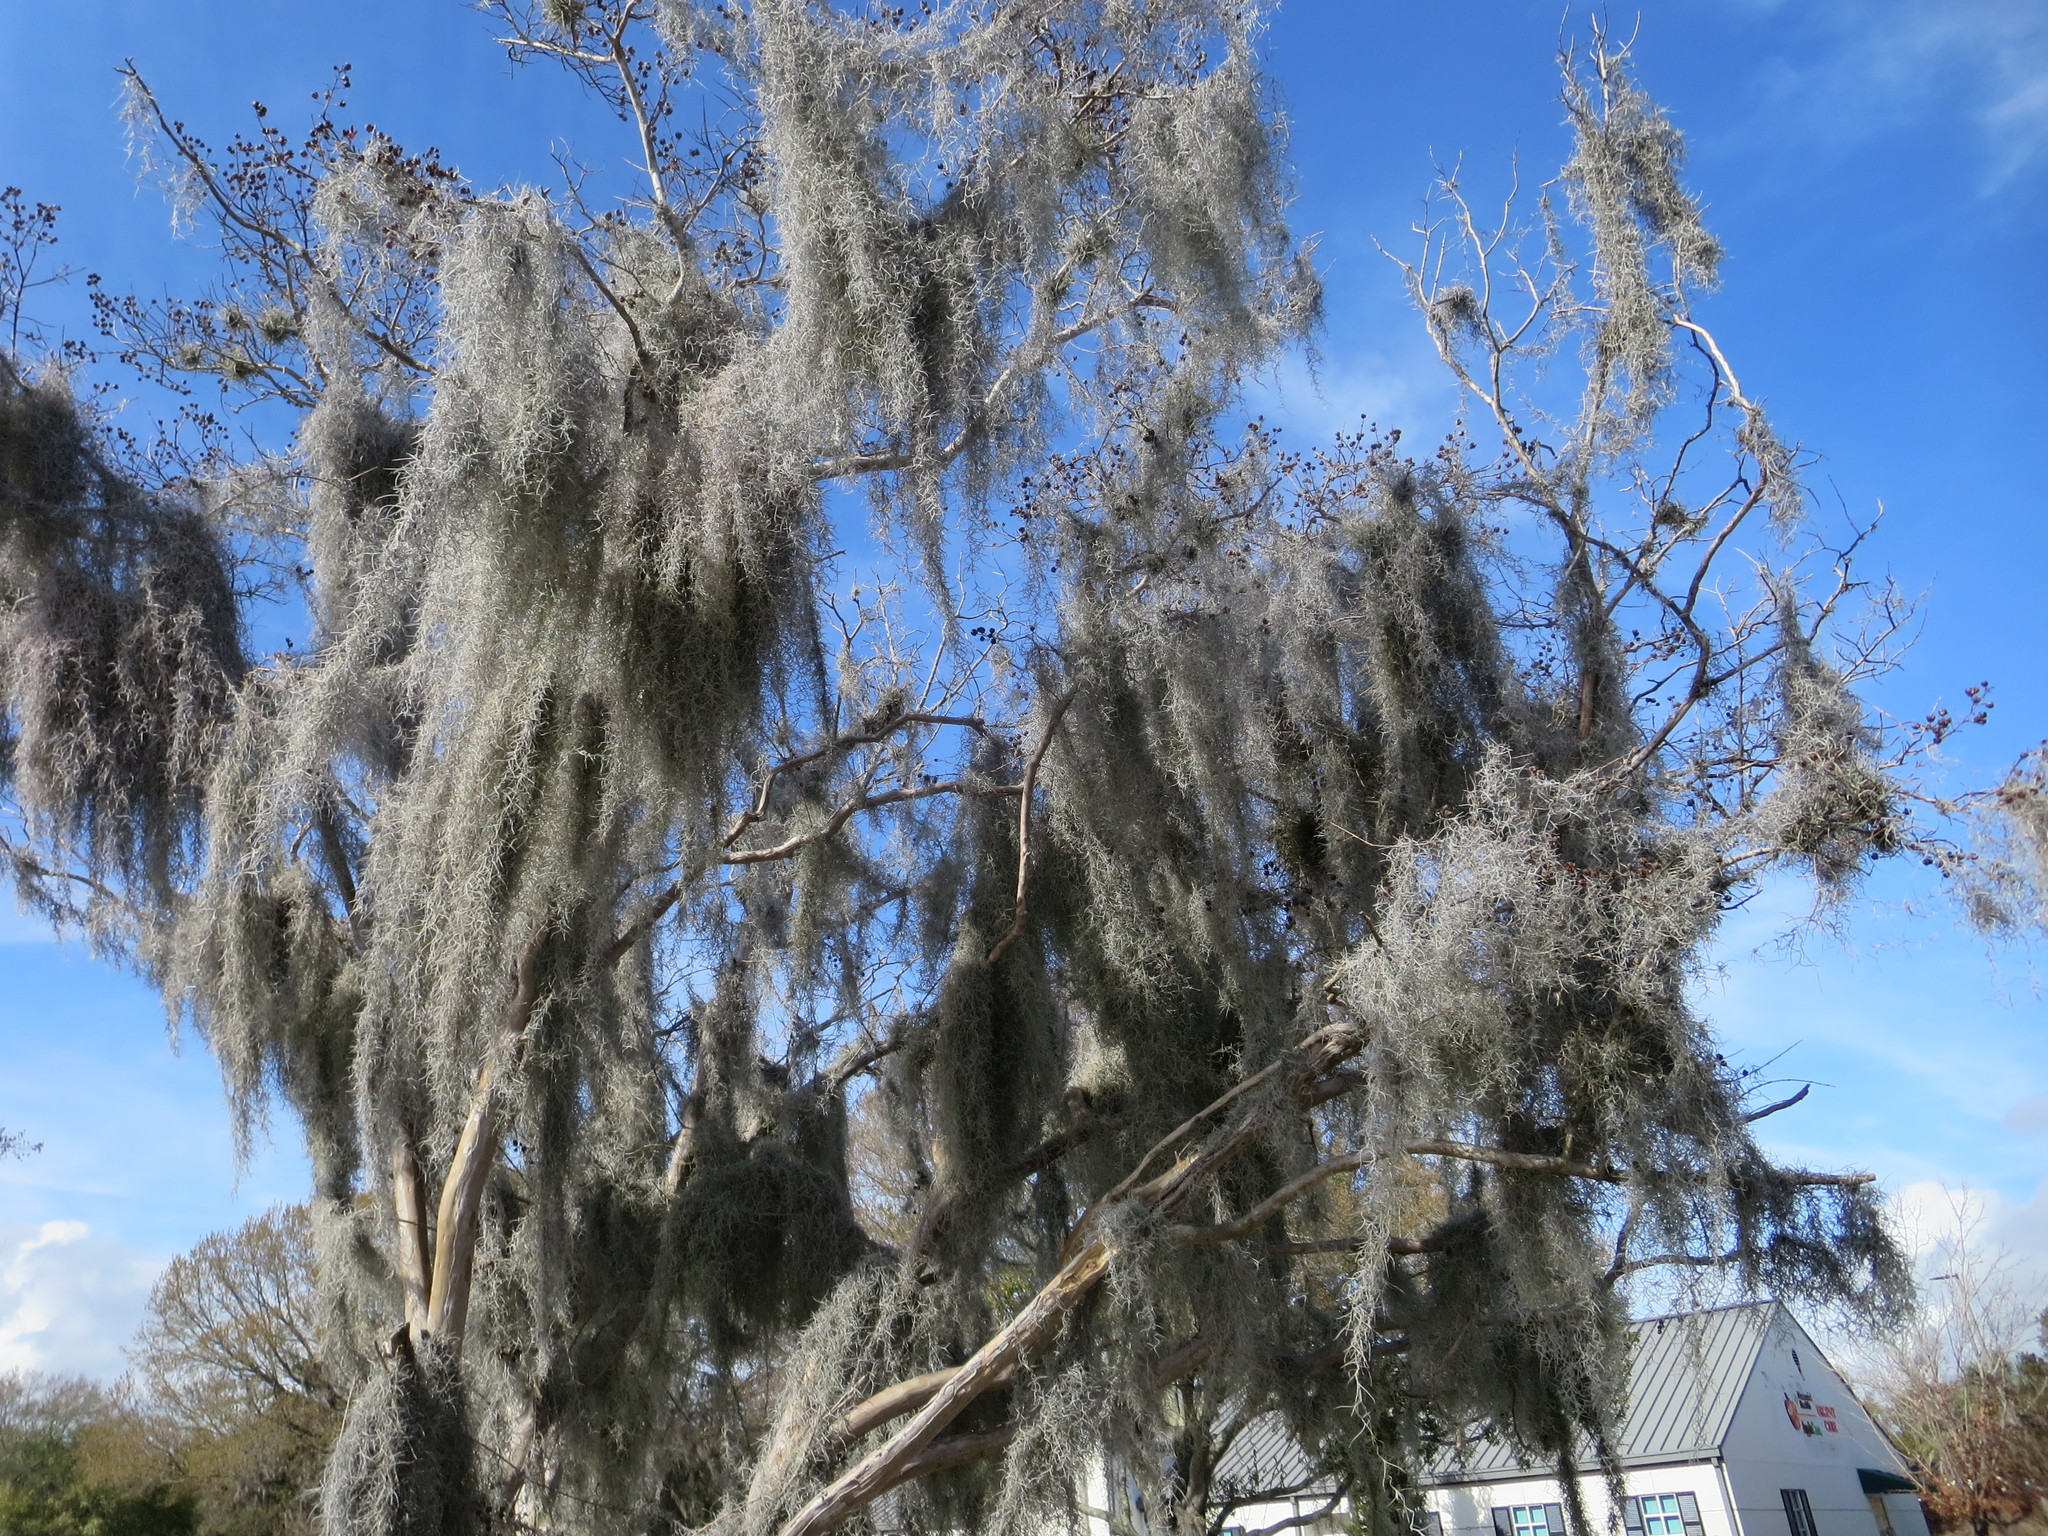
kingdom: Plantae
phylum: Tracheophyta
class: Liliopsida
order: Poales
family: Bromeliaceae
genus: Tillandsia
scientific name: Tillandsia usneoides
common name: Spanish moss
